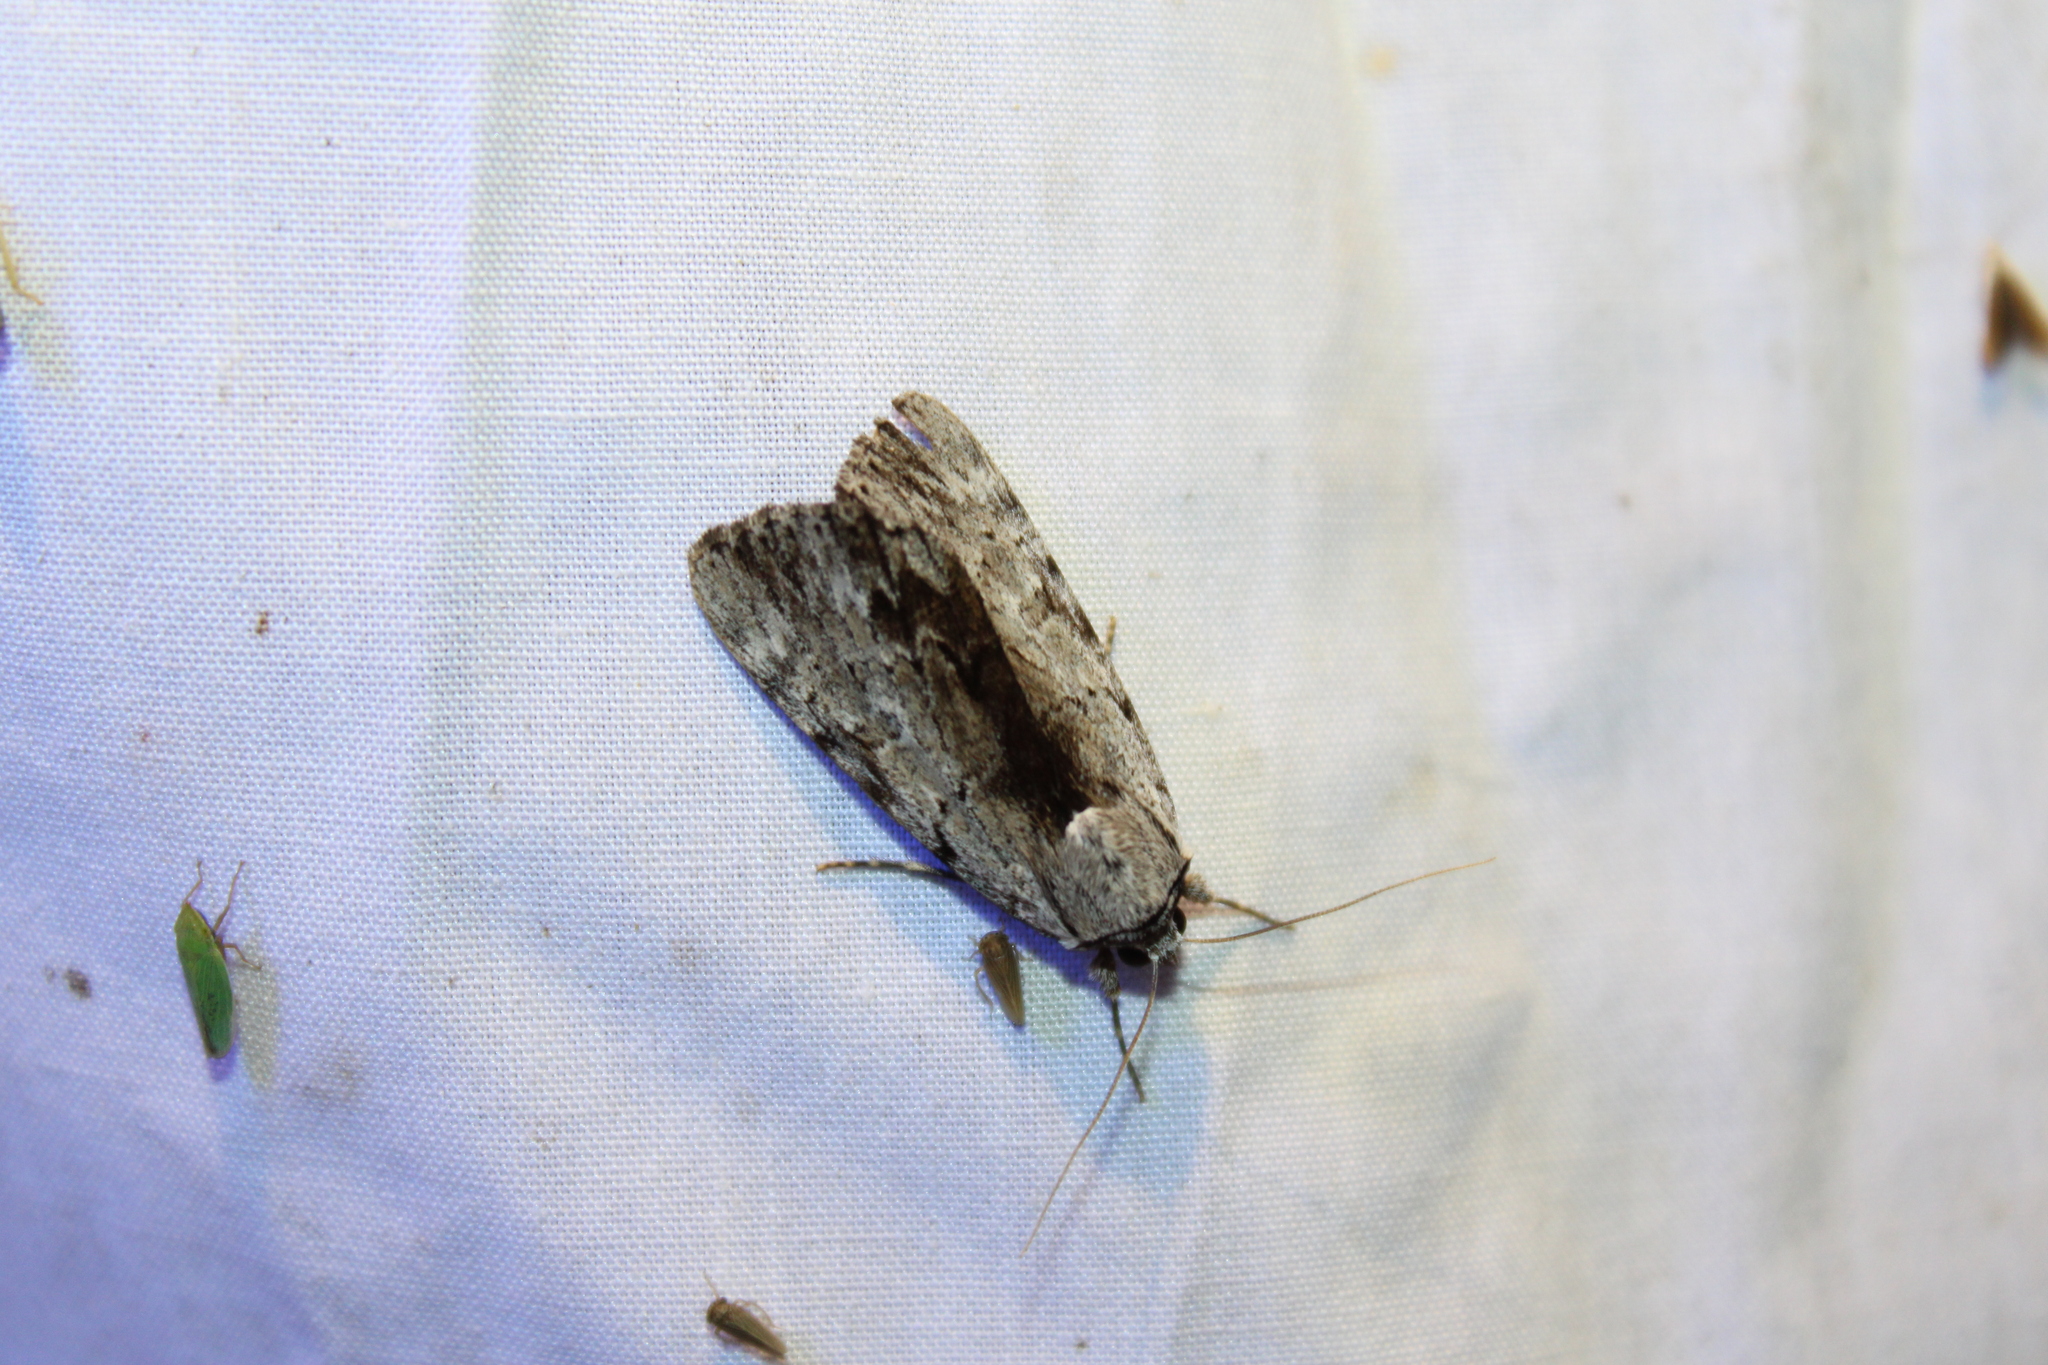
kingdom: Animalia
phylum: Arthropoda
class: Insecta
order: Lepidoptera
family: Erebidae
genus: Catocala
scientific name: Catocala gracilis
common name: Graceful underwing
